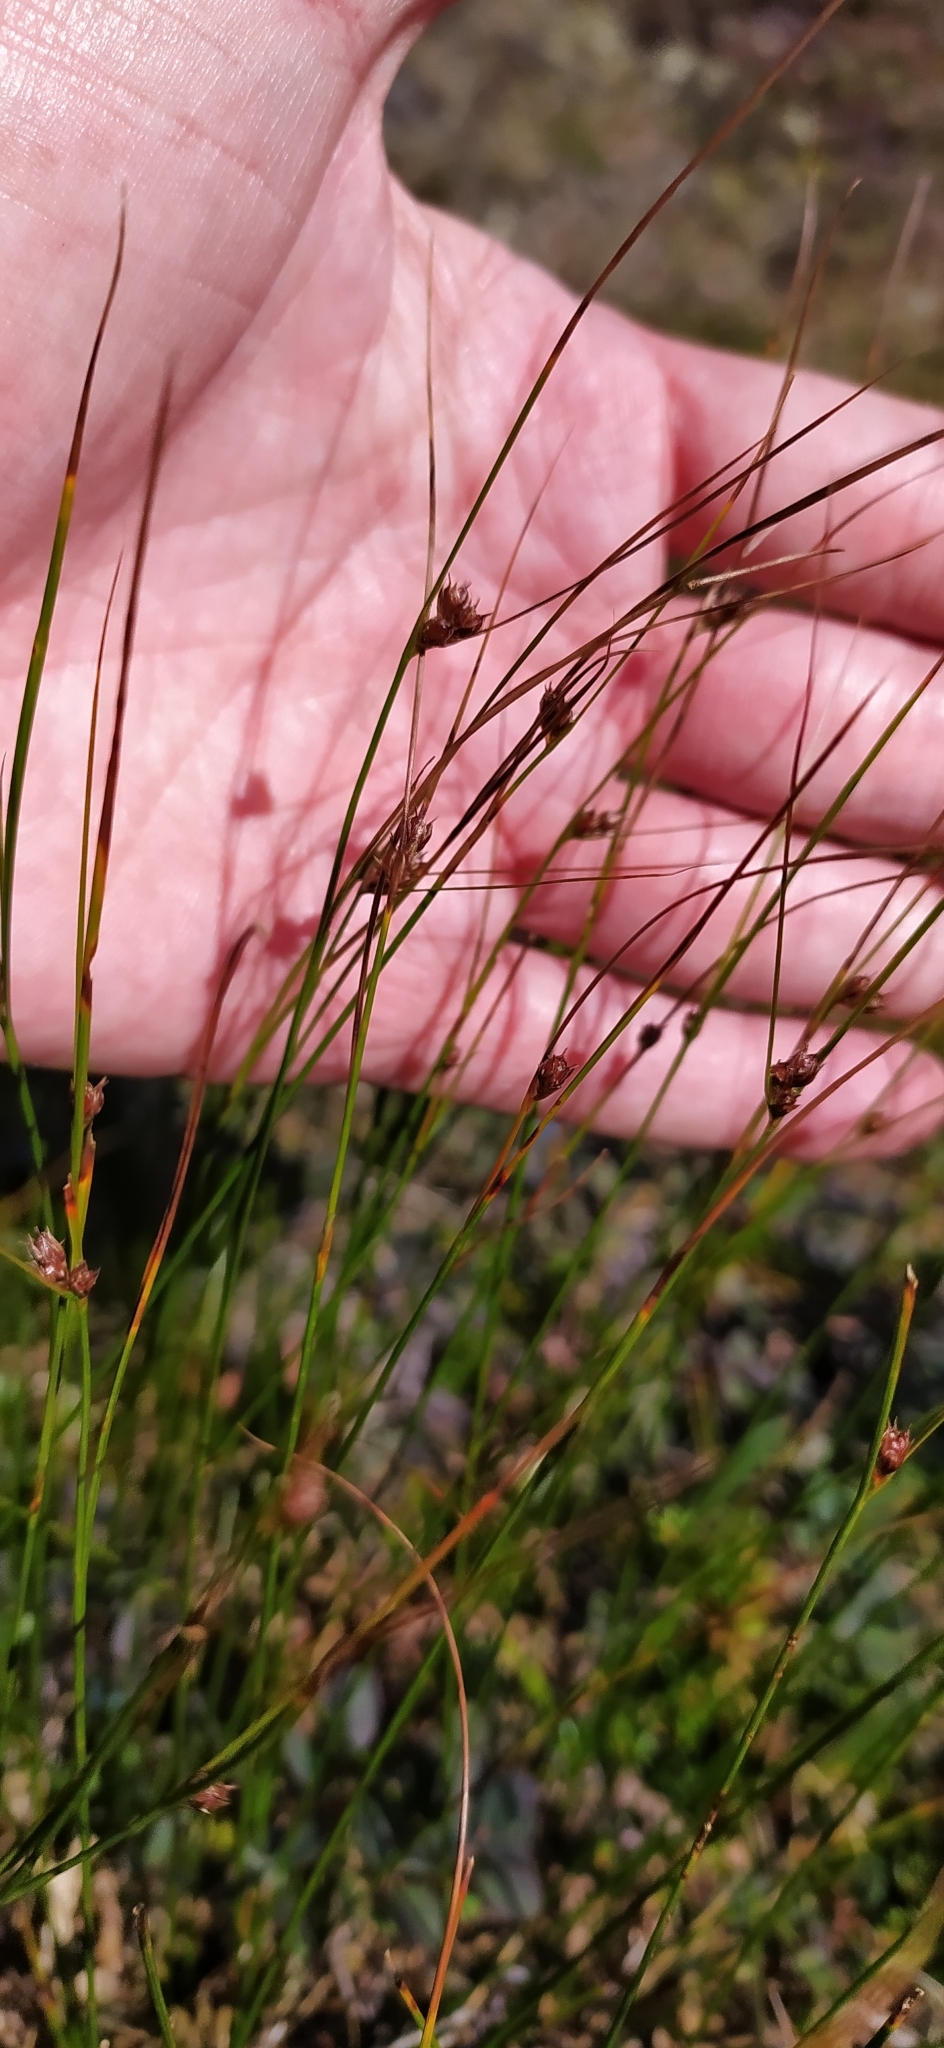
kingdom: Plantae
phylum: Tracheophyta
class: Liliopsida
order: Poales
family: Juncaceae
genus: Oreojuncus
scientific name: Oreojuncus trifidus
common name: Highland rush
